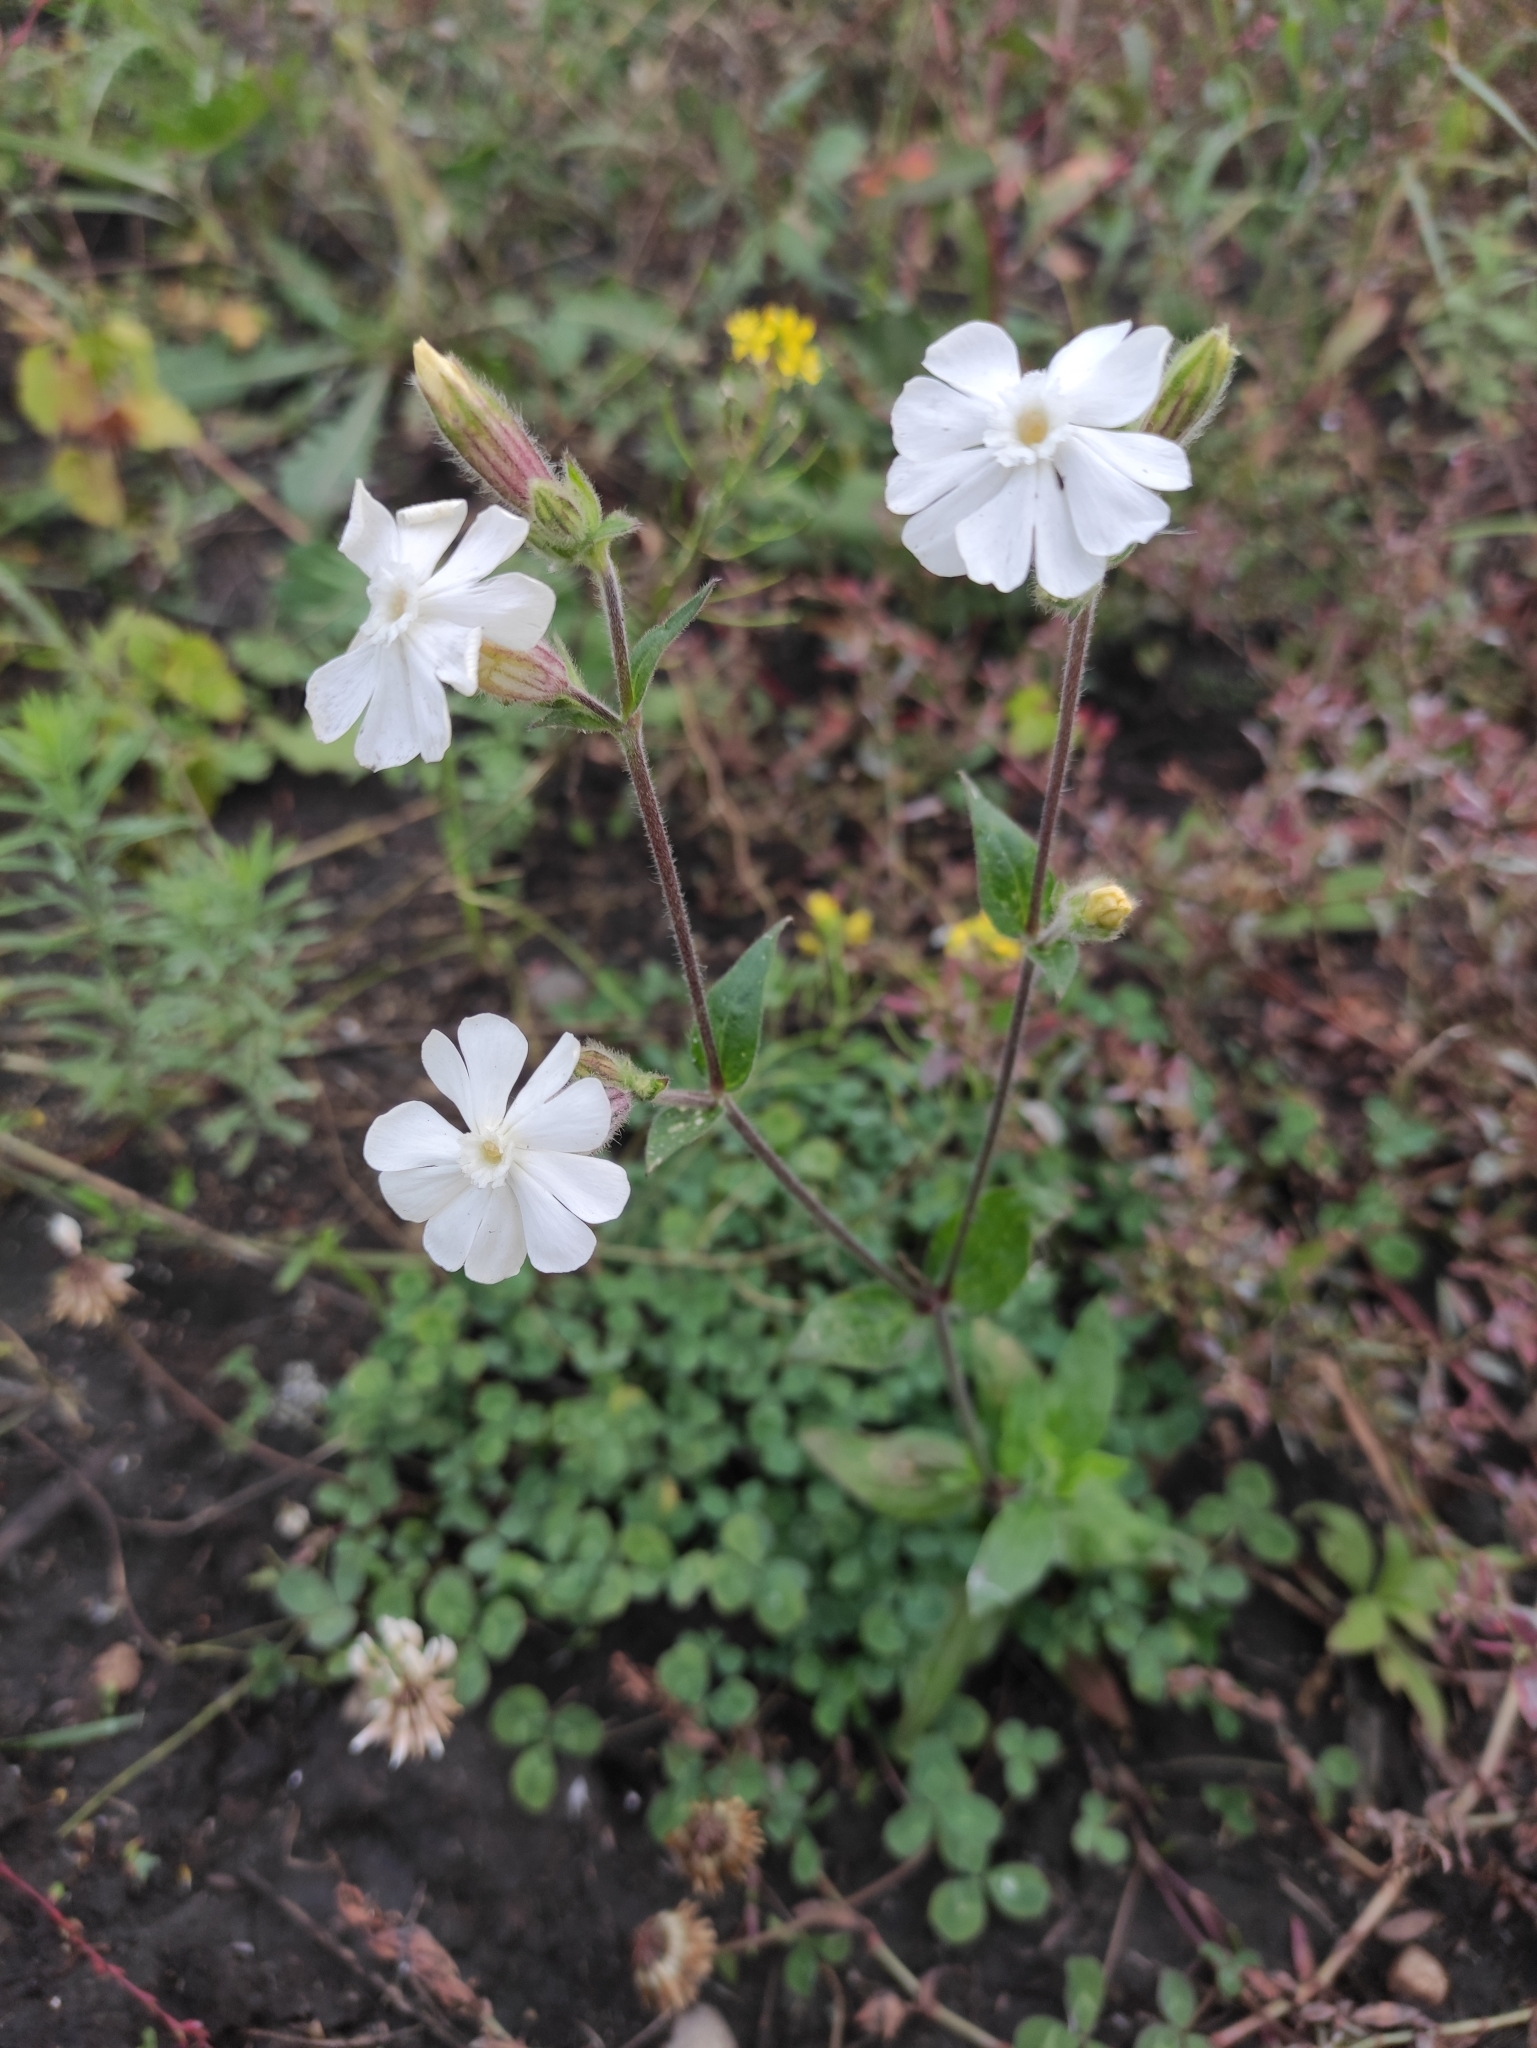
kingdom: Plantae
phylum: Tracheophyta
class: Magnoliopsida
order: Caryophyllales
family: Caryophyllaceae
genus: Silene
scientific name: Silene latifolia
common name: White campion
